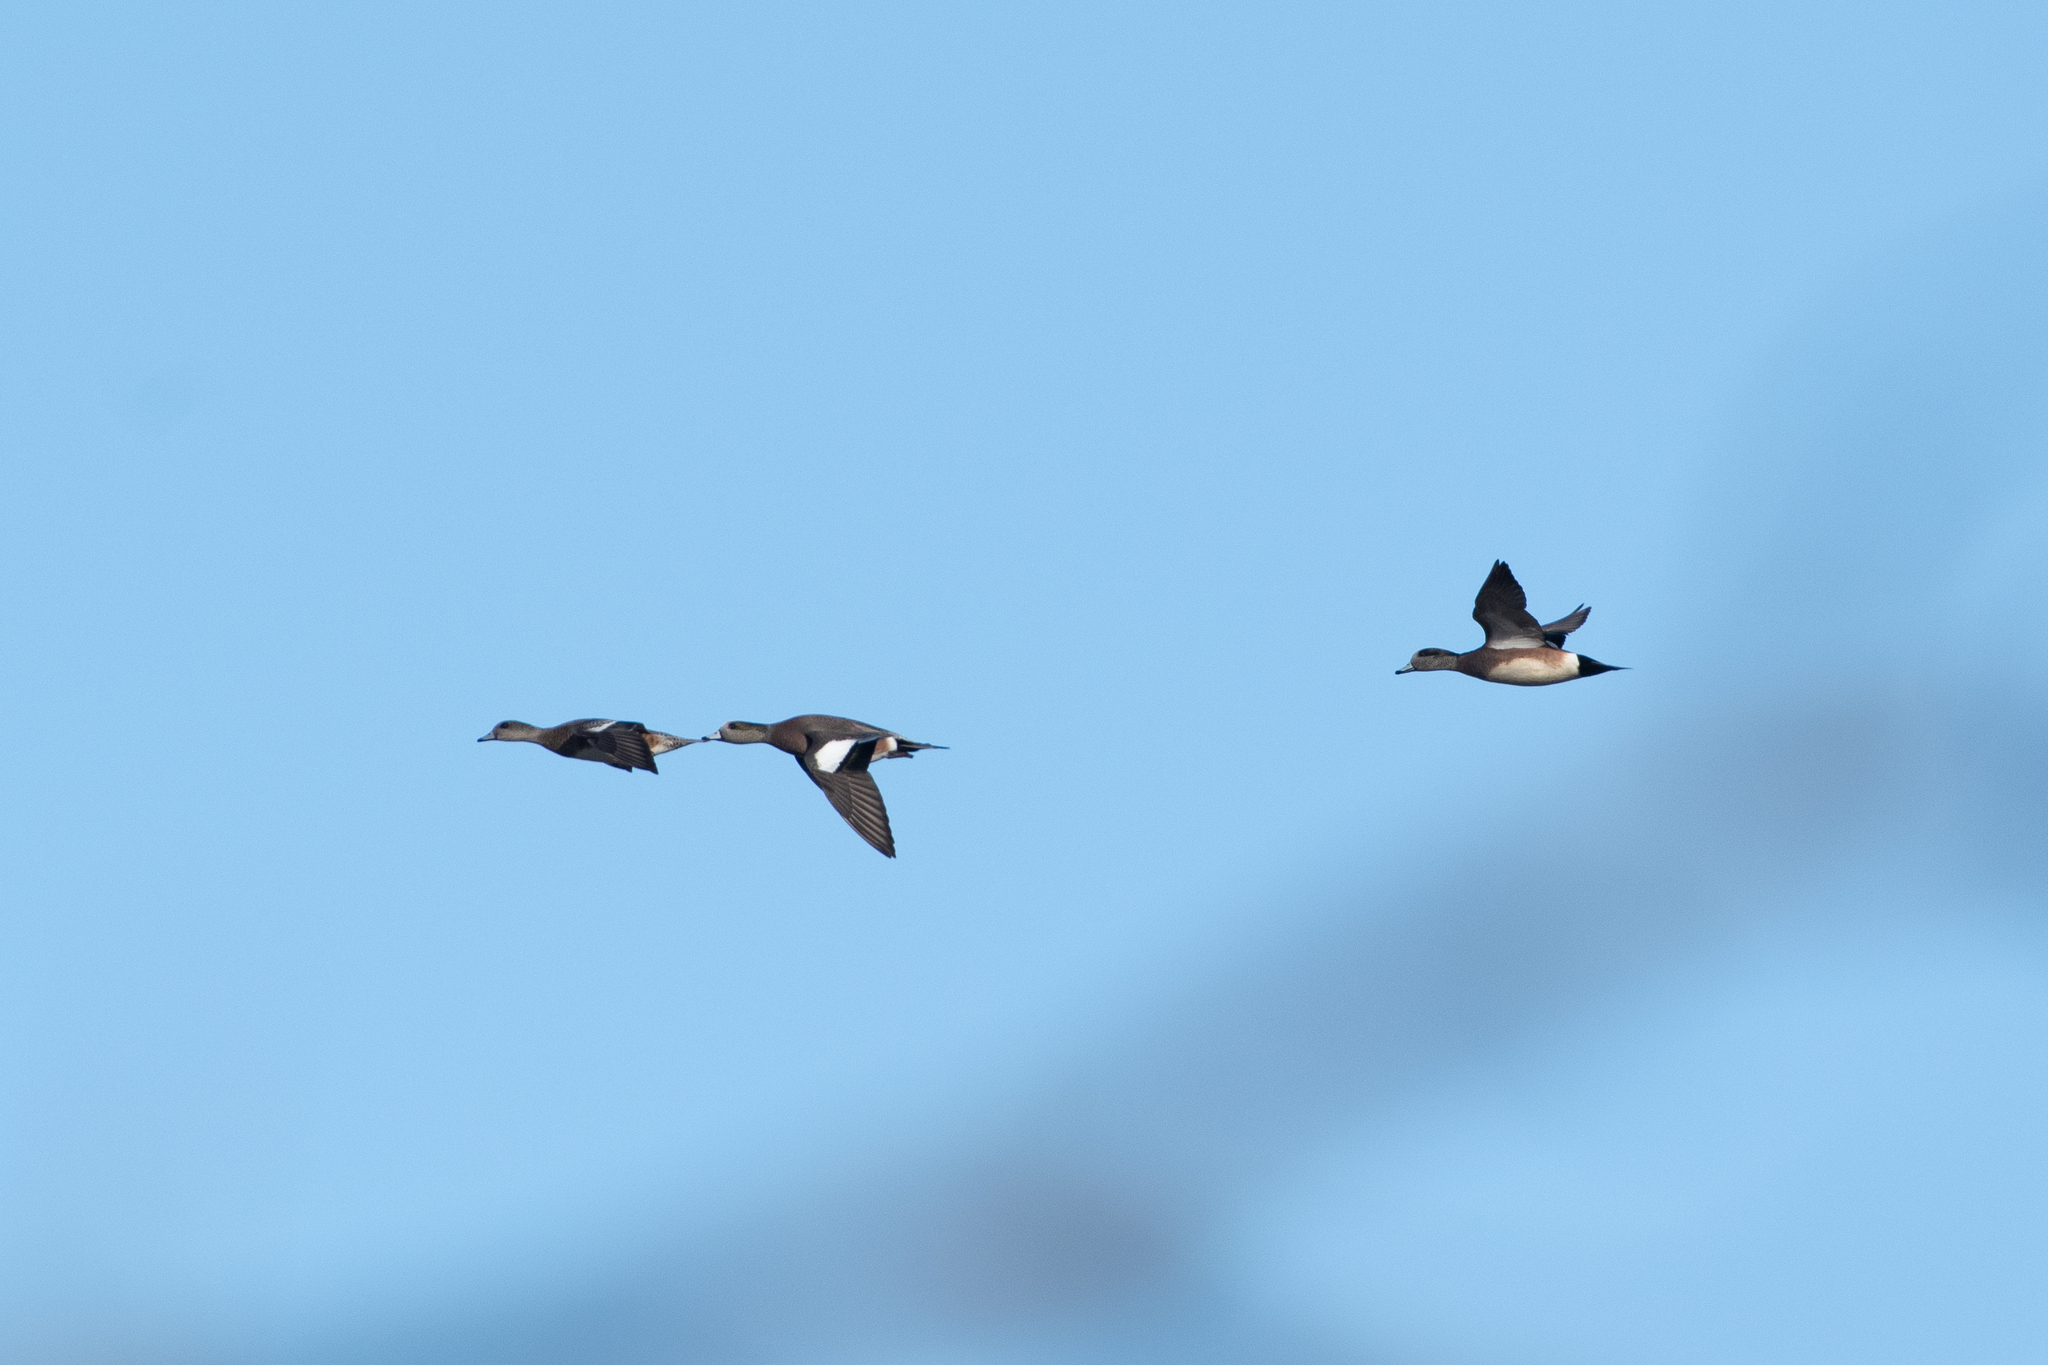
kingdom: Animalia
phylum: Chordata
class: Aves
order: Anseriformes
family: Anatidae
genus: Mareca
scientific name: Mareca americana
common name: American wigeon
